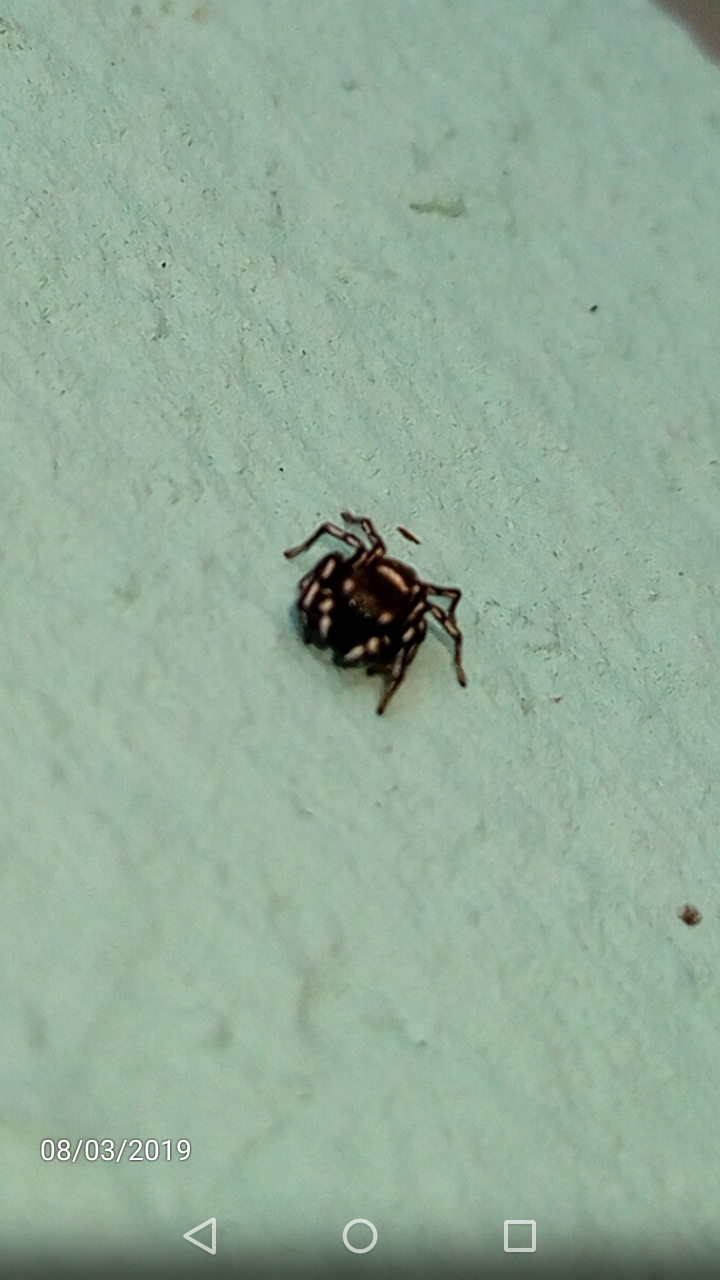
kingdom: Animalia
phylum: Arthropoda
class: Arachnida
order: Araneae
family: Salticidae
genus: Heliophanus
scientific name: Heliophanus kochii
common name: Sun jumping spider
